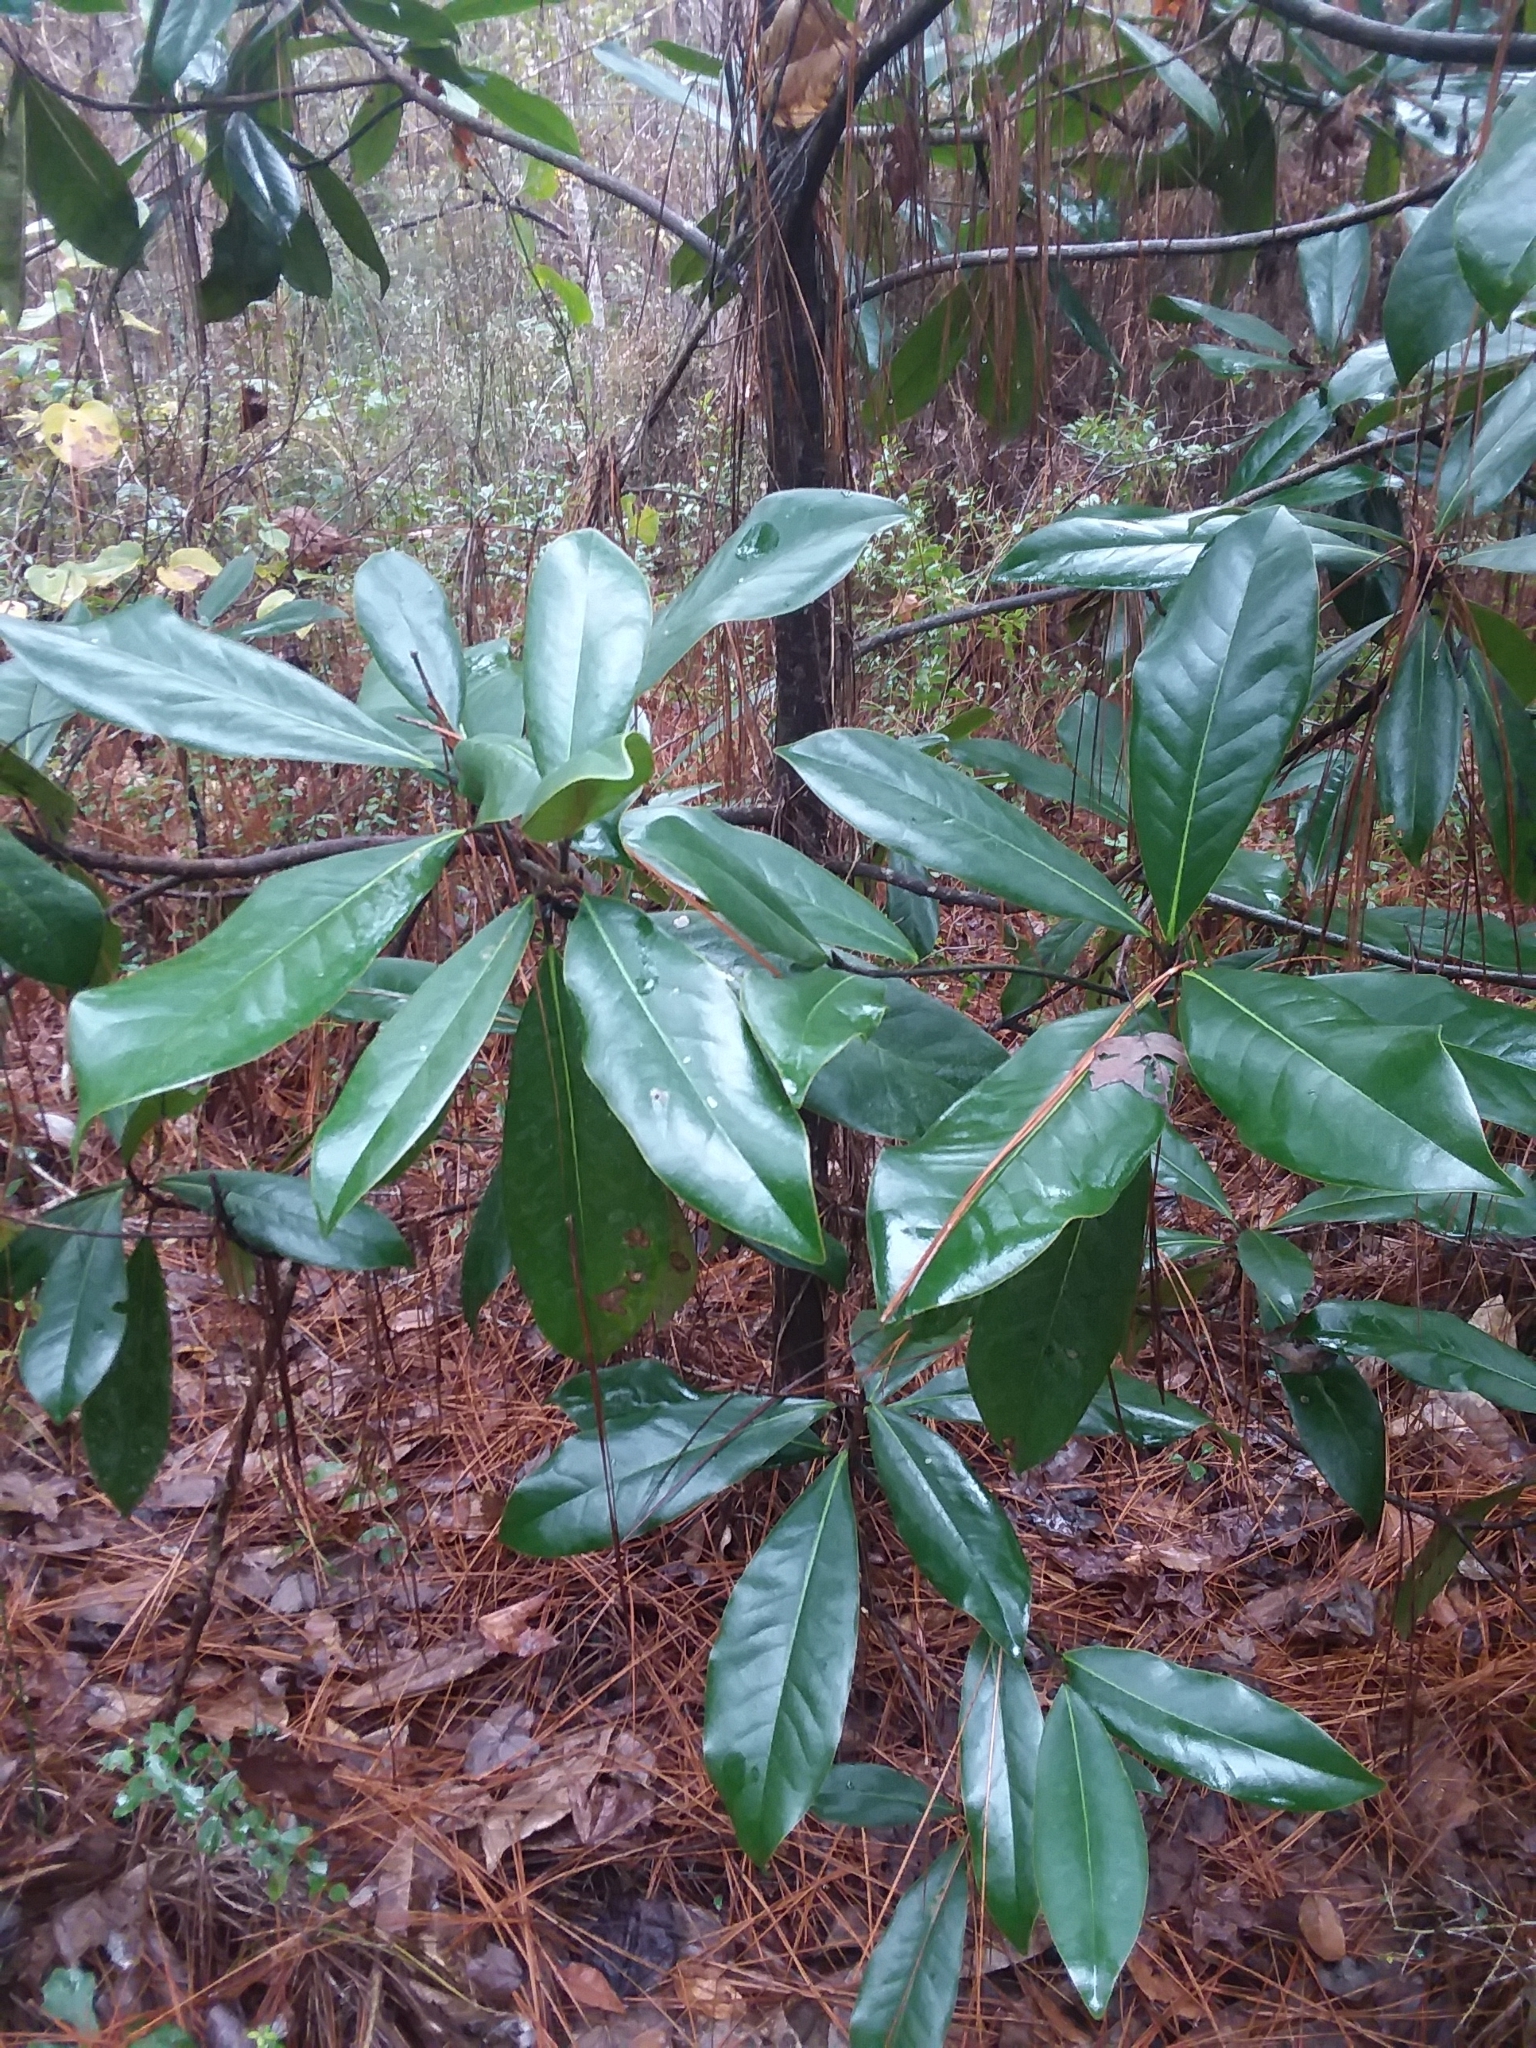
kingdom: Plantae
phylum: Tracheophyta
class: Magnoliopsida
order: Magnoliales
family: Magnoliaceae
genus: Magnolia
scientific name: Magnolia grandiflora
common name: Southern magnolia
